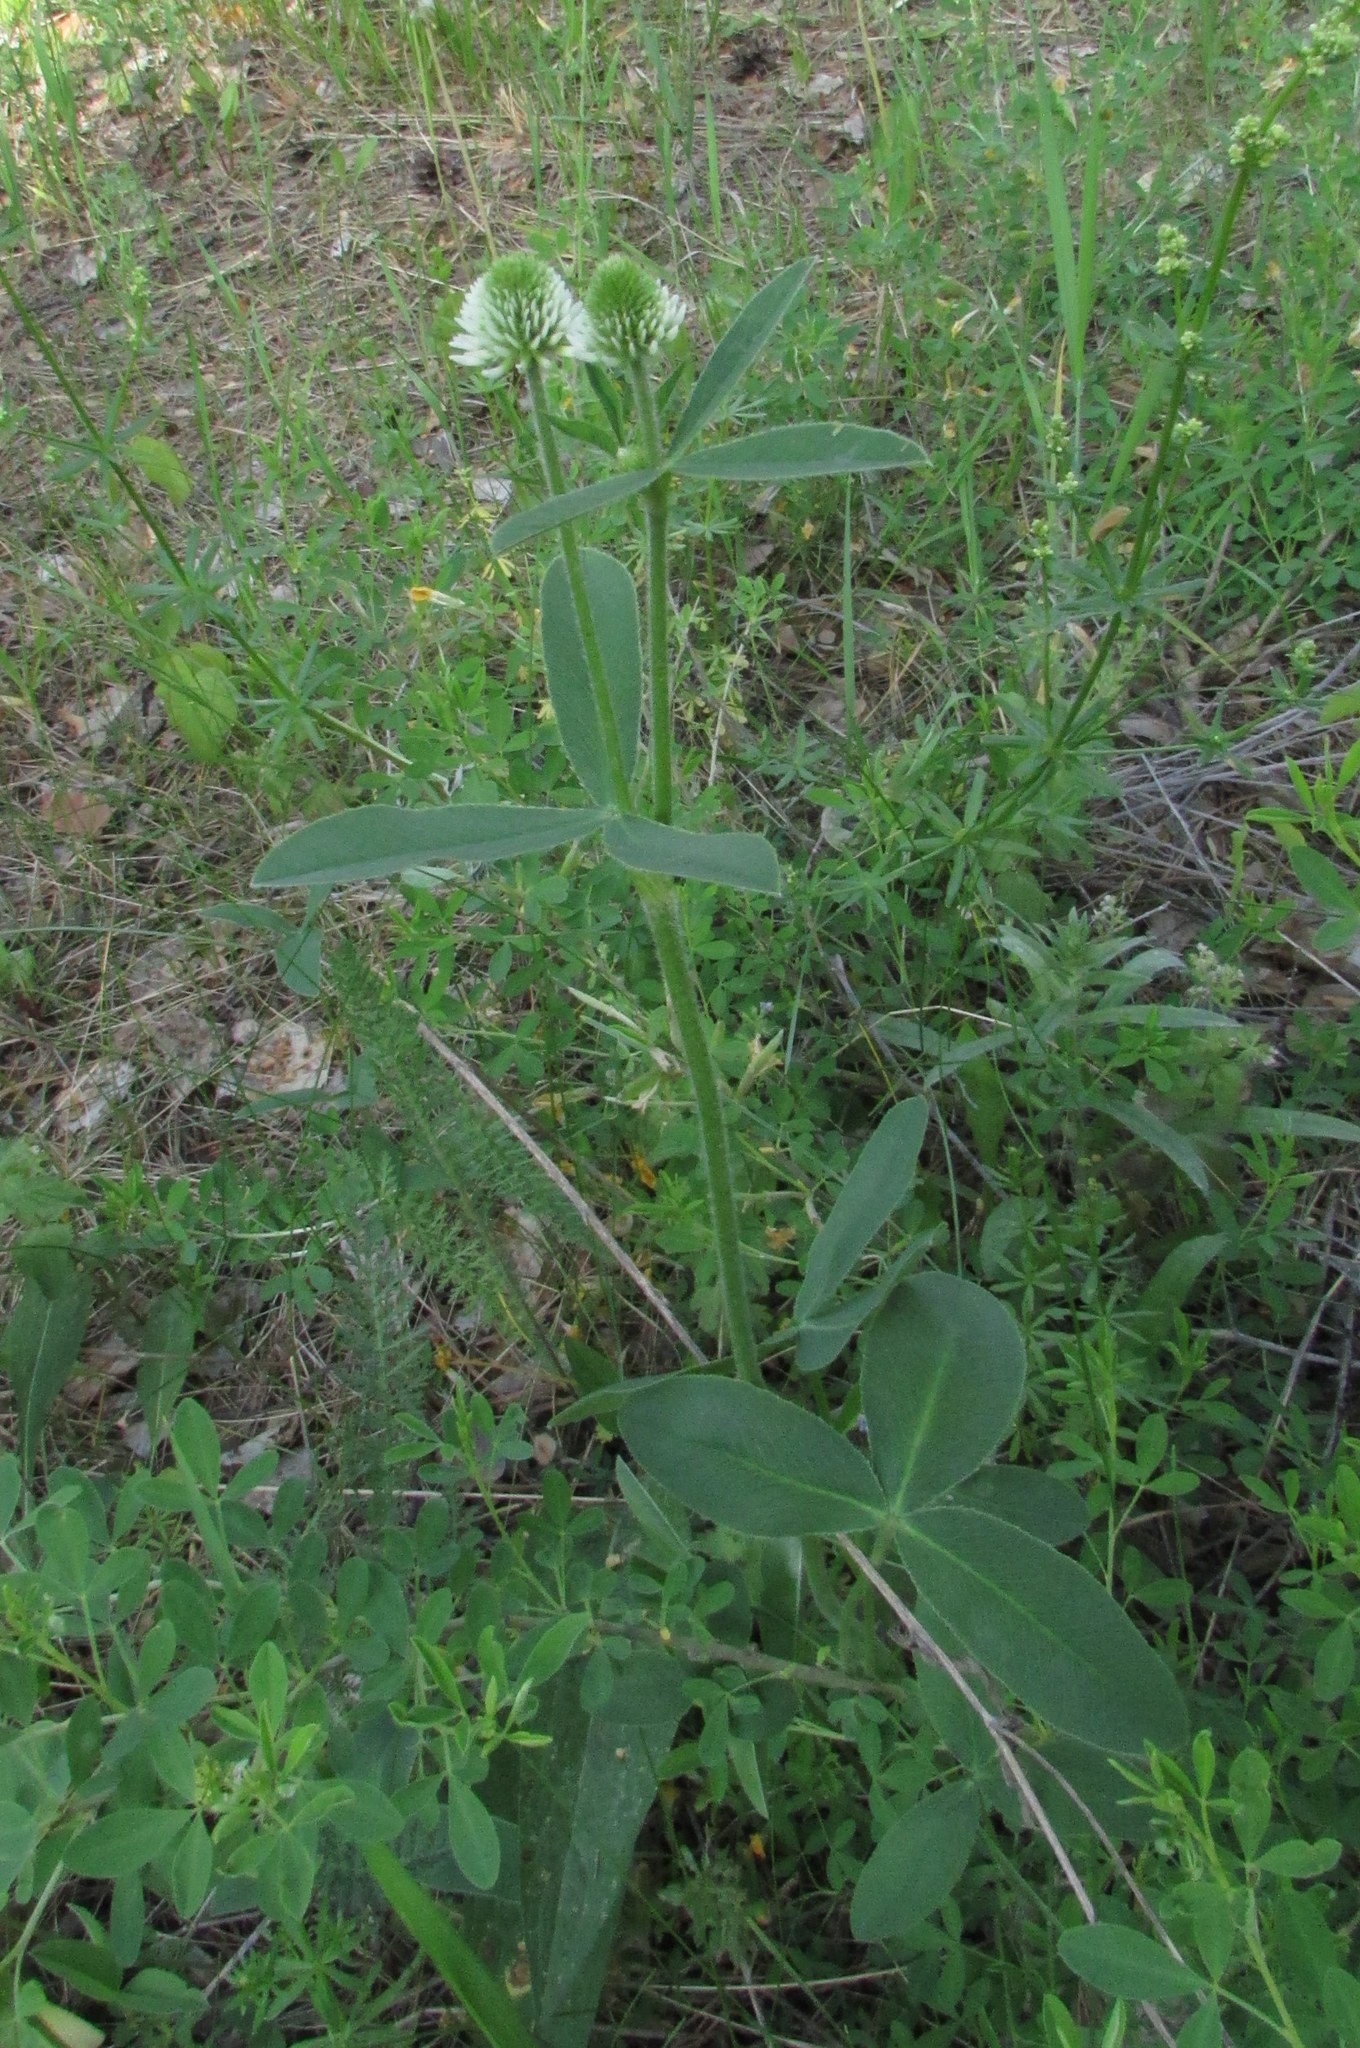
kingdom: Plantae
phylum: Tracheophyta
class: Magnoliopsida
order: Fabales
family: Fabaceae
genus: Trifolium
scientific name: Trifolium montanum
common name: Mountain clover
